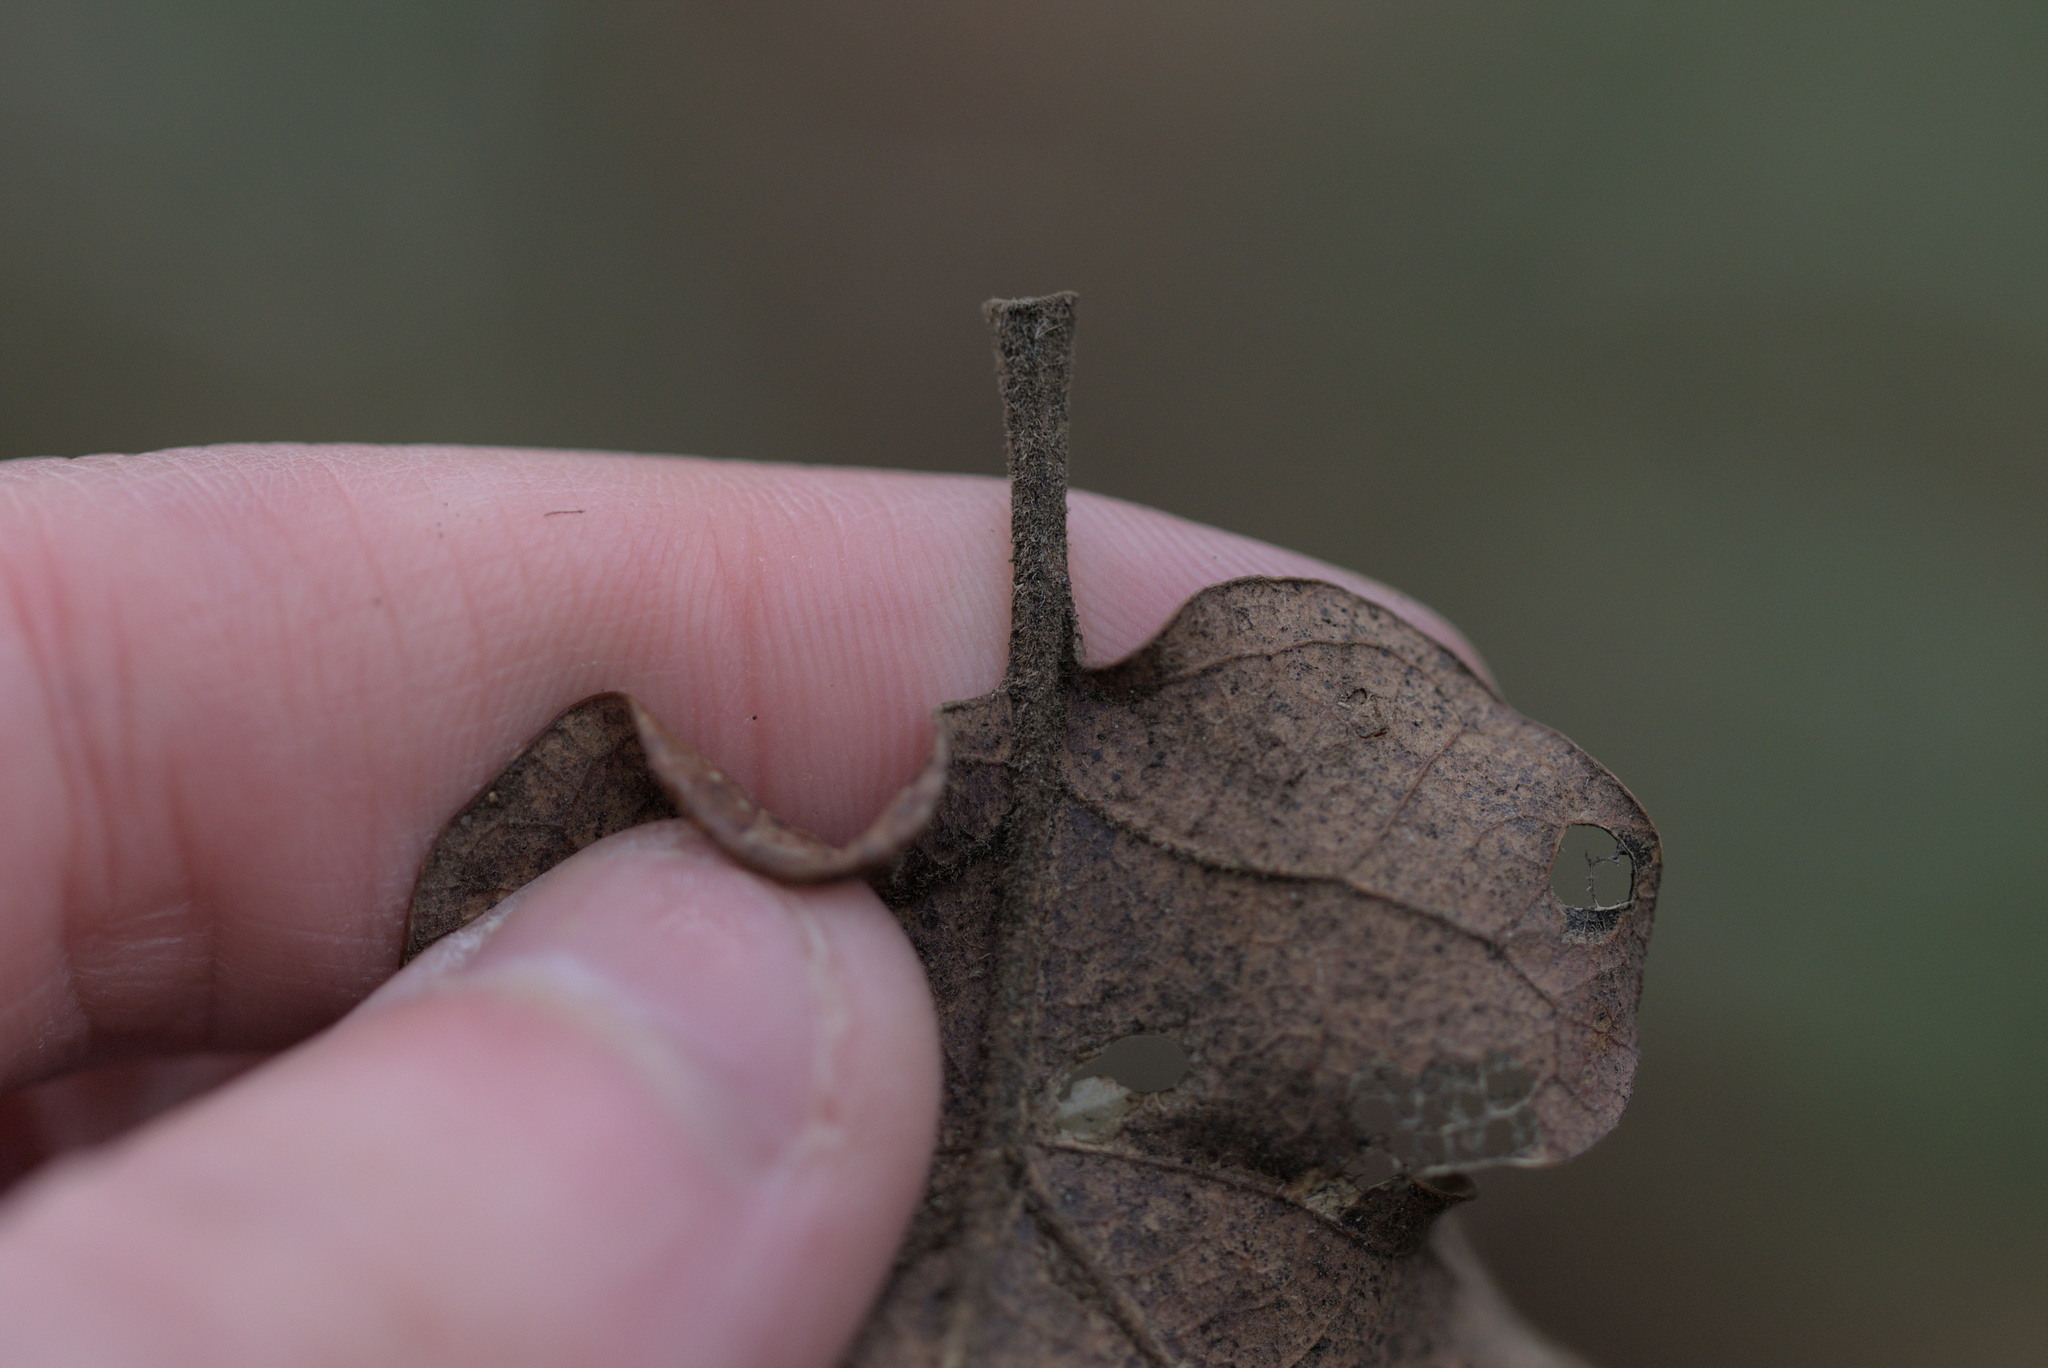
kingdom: Plantae
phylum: Tracheophyta
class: Magnoliopsida
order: Fagales
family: Fagaceae
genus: Quercus
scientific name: Quercus garryana
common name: Garry oak
